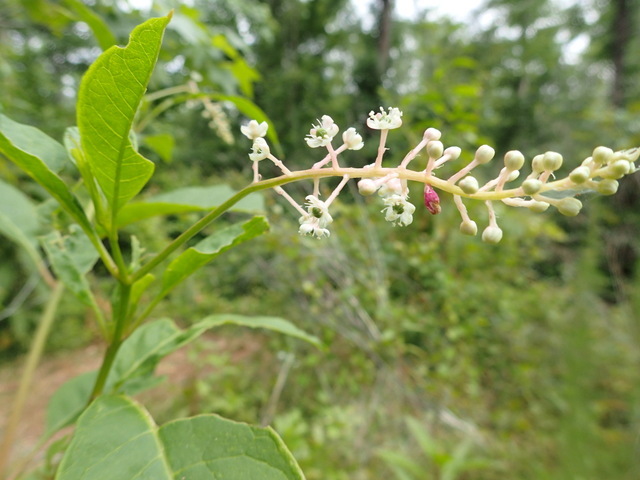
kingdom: Plantae
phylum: Tracheophyta
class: Magnoliopsida
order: Caryophyllales
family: Phytolaccaceae
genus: Phytolacca
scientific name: Phytolacca americana
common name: American pokeweed
